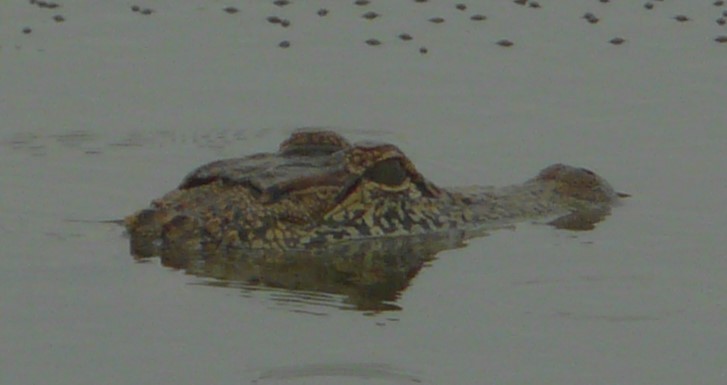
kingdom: Animalia
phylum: Chordata
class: Crocodylia
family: Alligatoridae
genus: Alligator
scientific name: Alligator mississippiensis
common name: American alligator
